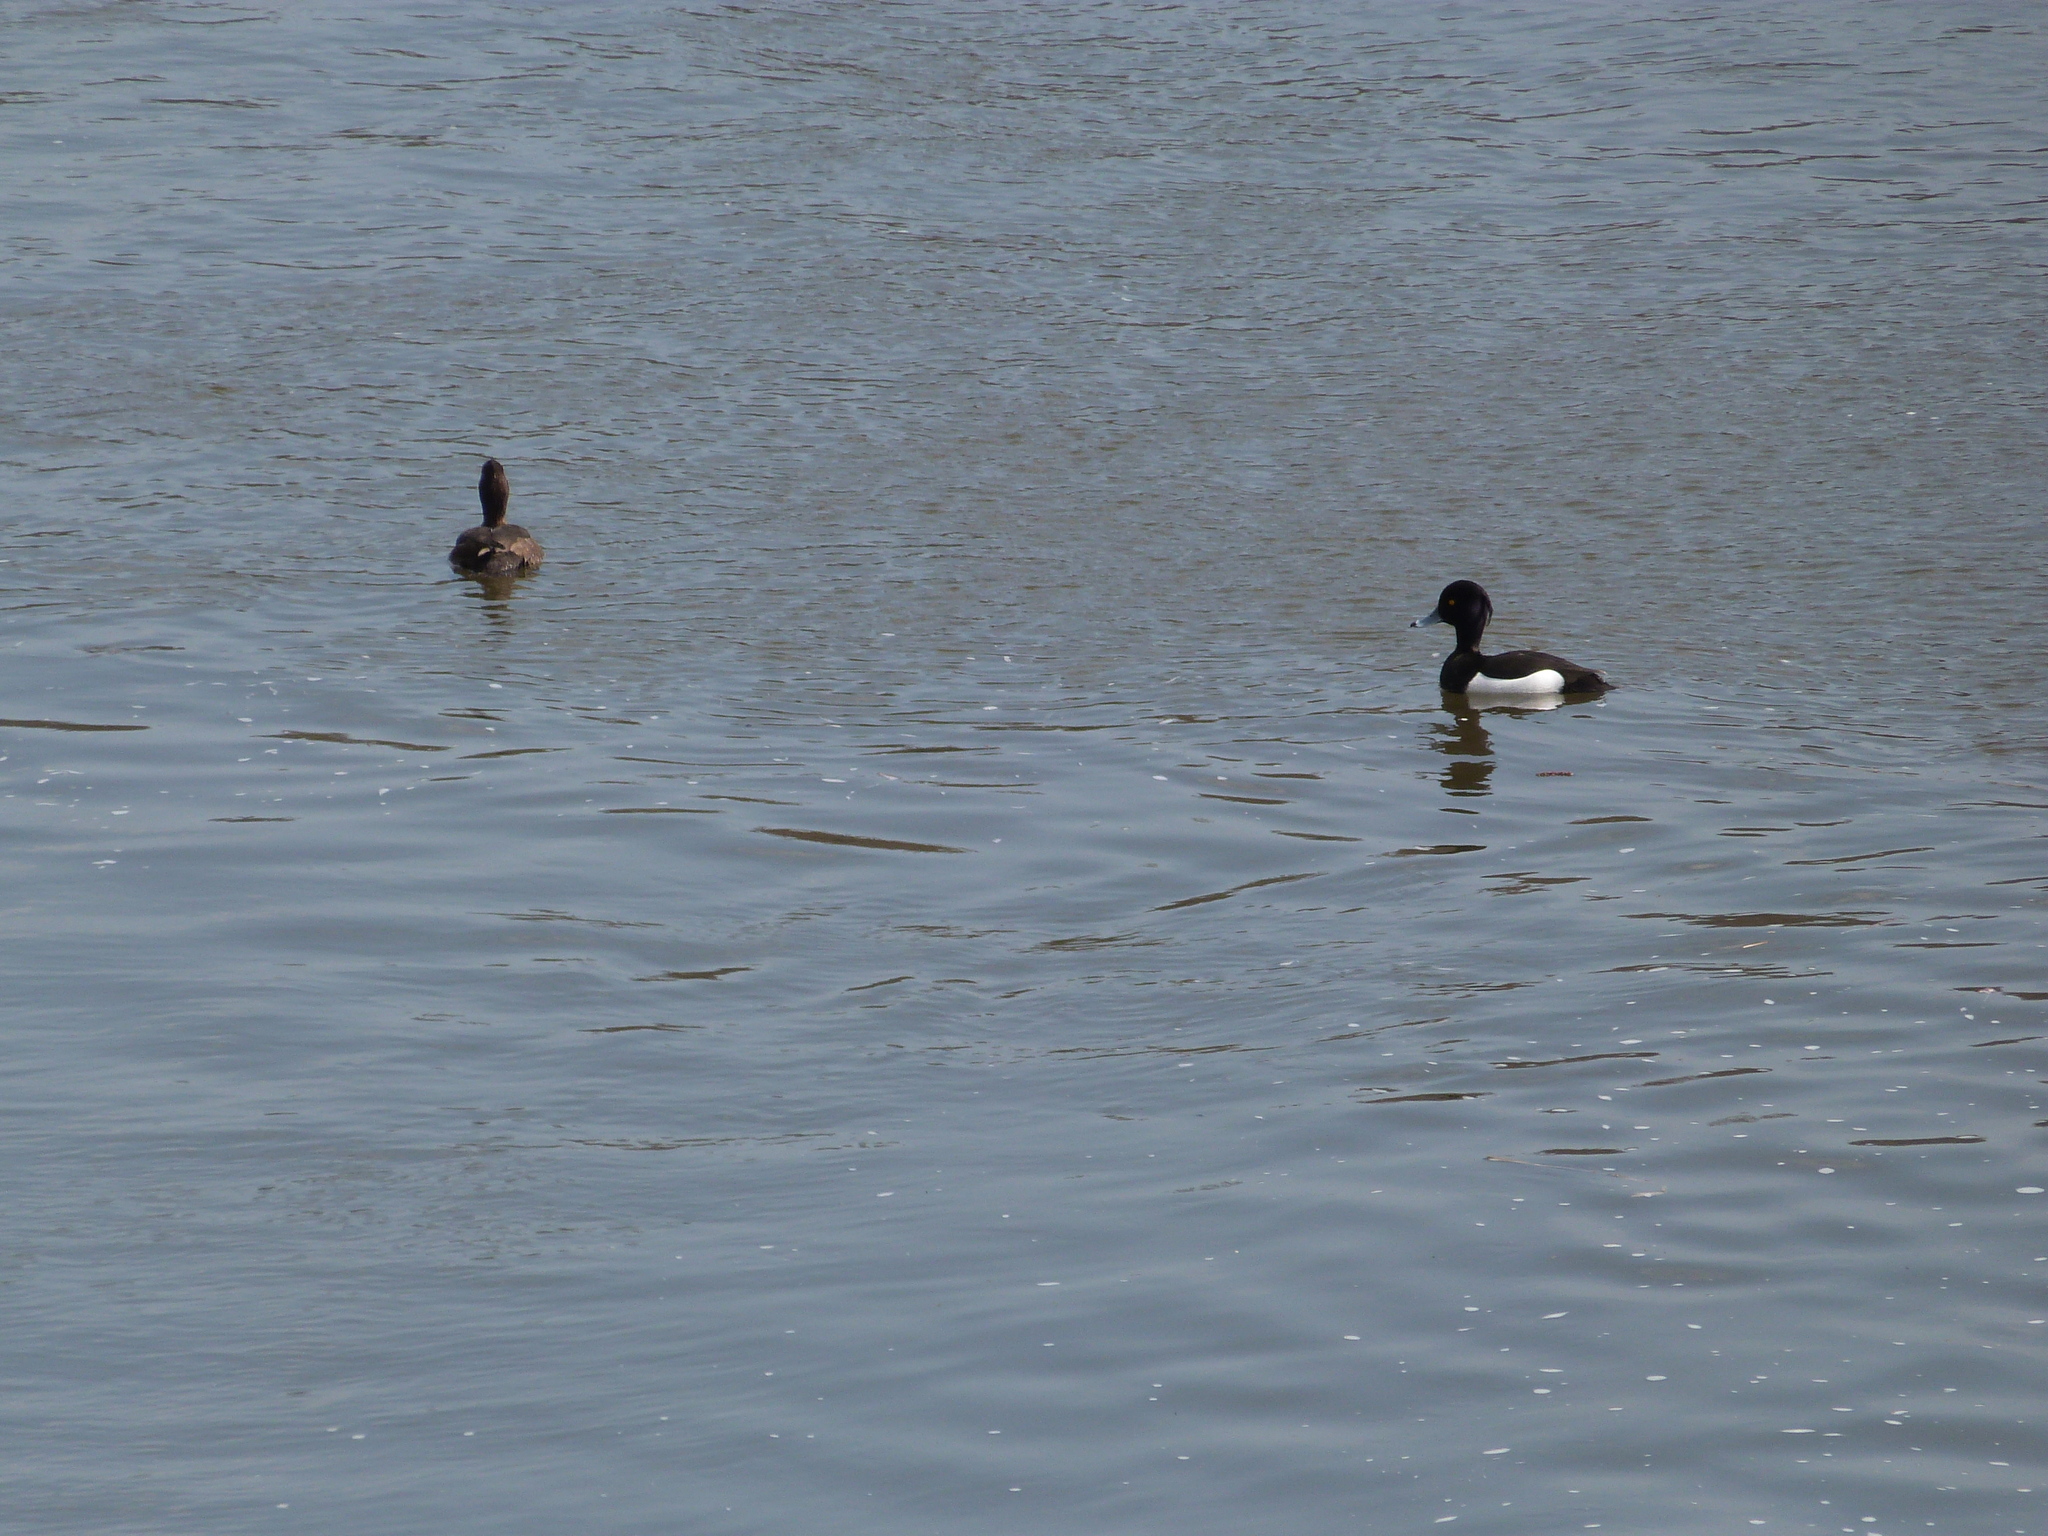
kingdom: Animalia
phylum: Chordata
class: Aves
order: Anseriformes
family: Anatidae
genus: Aythya
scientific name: Aythya fuligula
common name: Tufted duck
